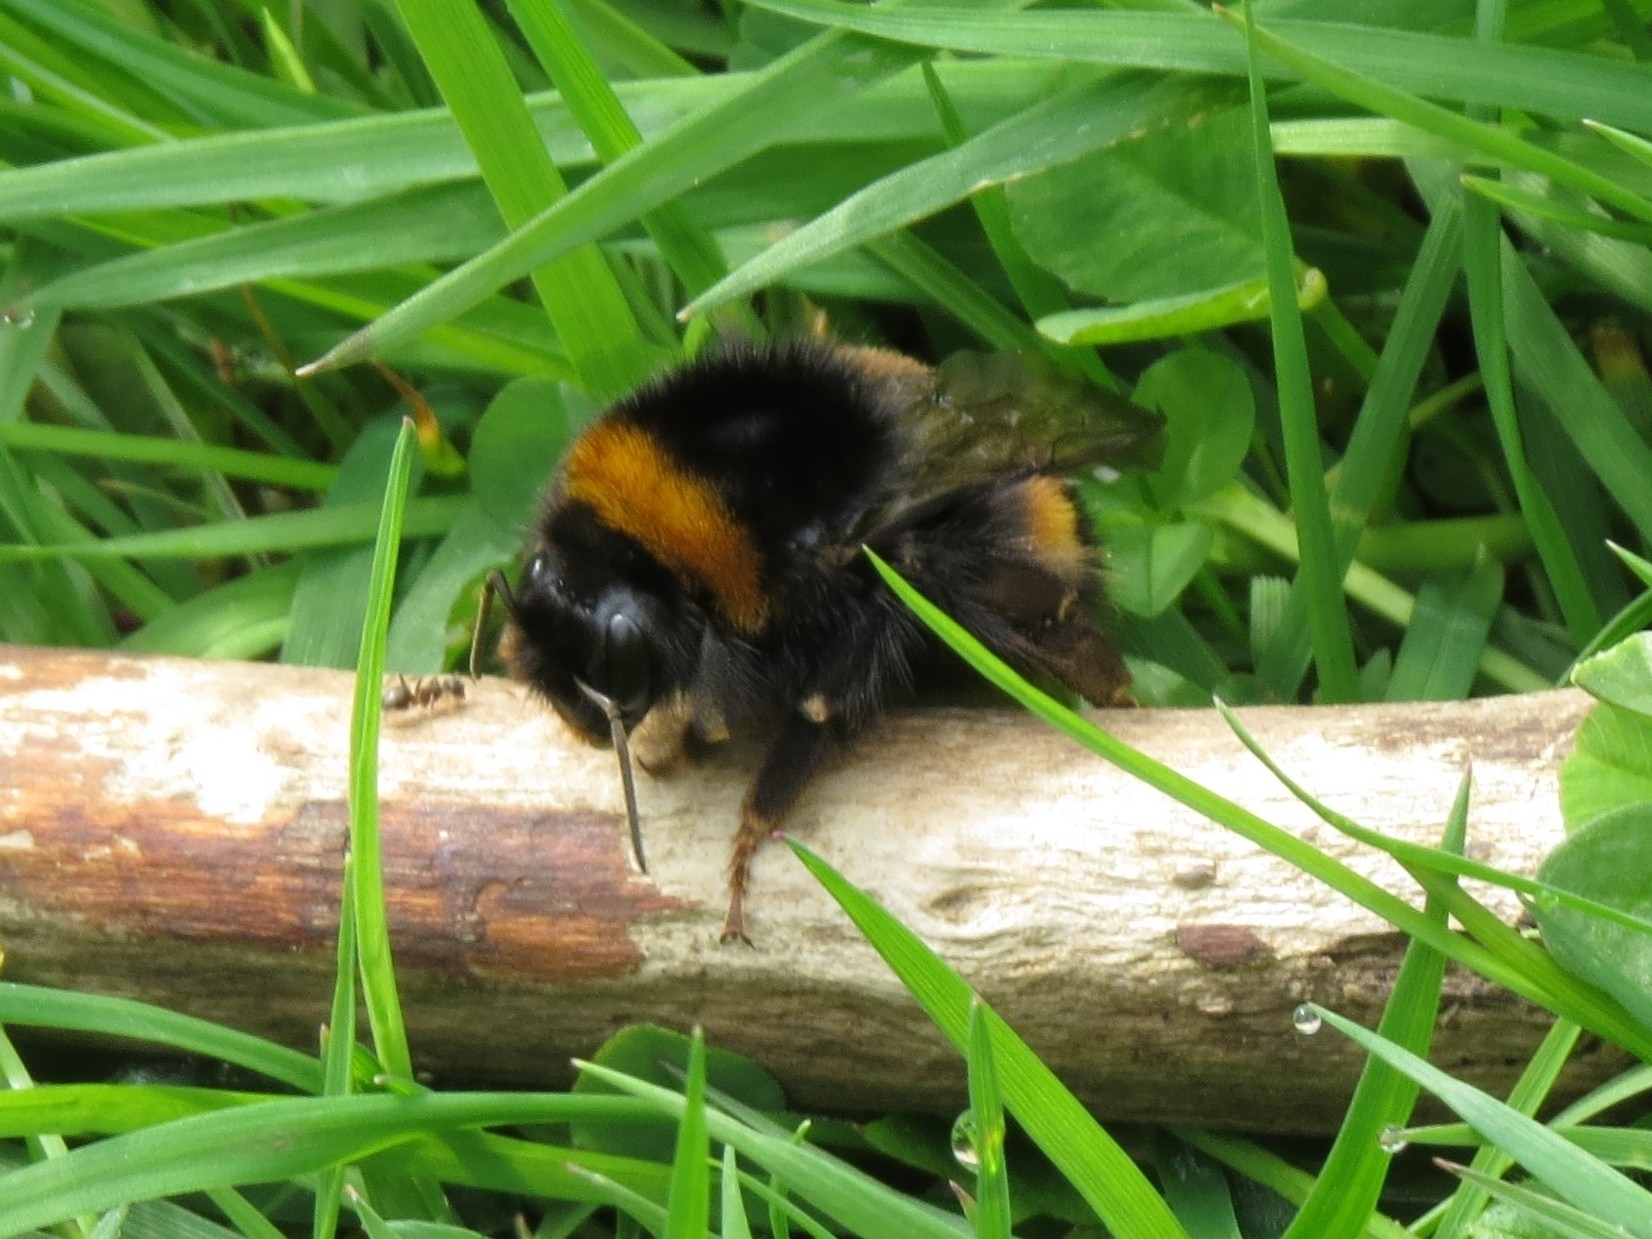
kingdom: Animalia
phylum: Arthropoda
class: Insecta
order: Hymenoptera
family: Apidae
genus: Bombus
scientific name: Bombus terrestris
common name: Buff-tailed bumblebee
